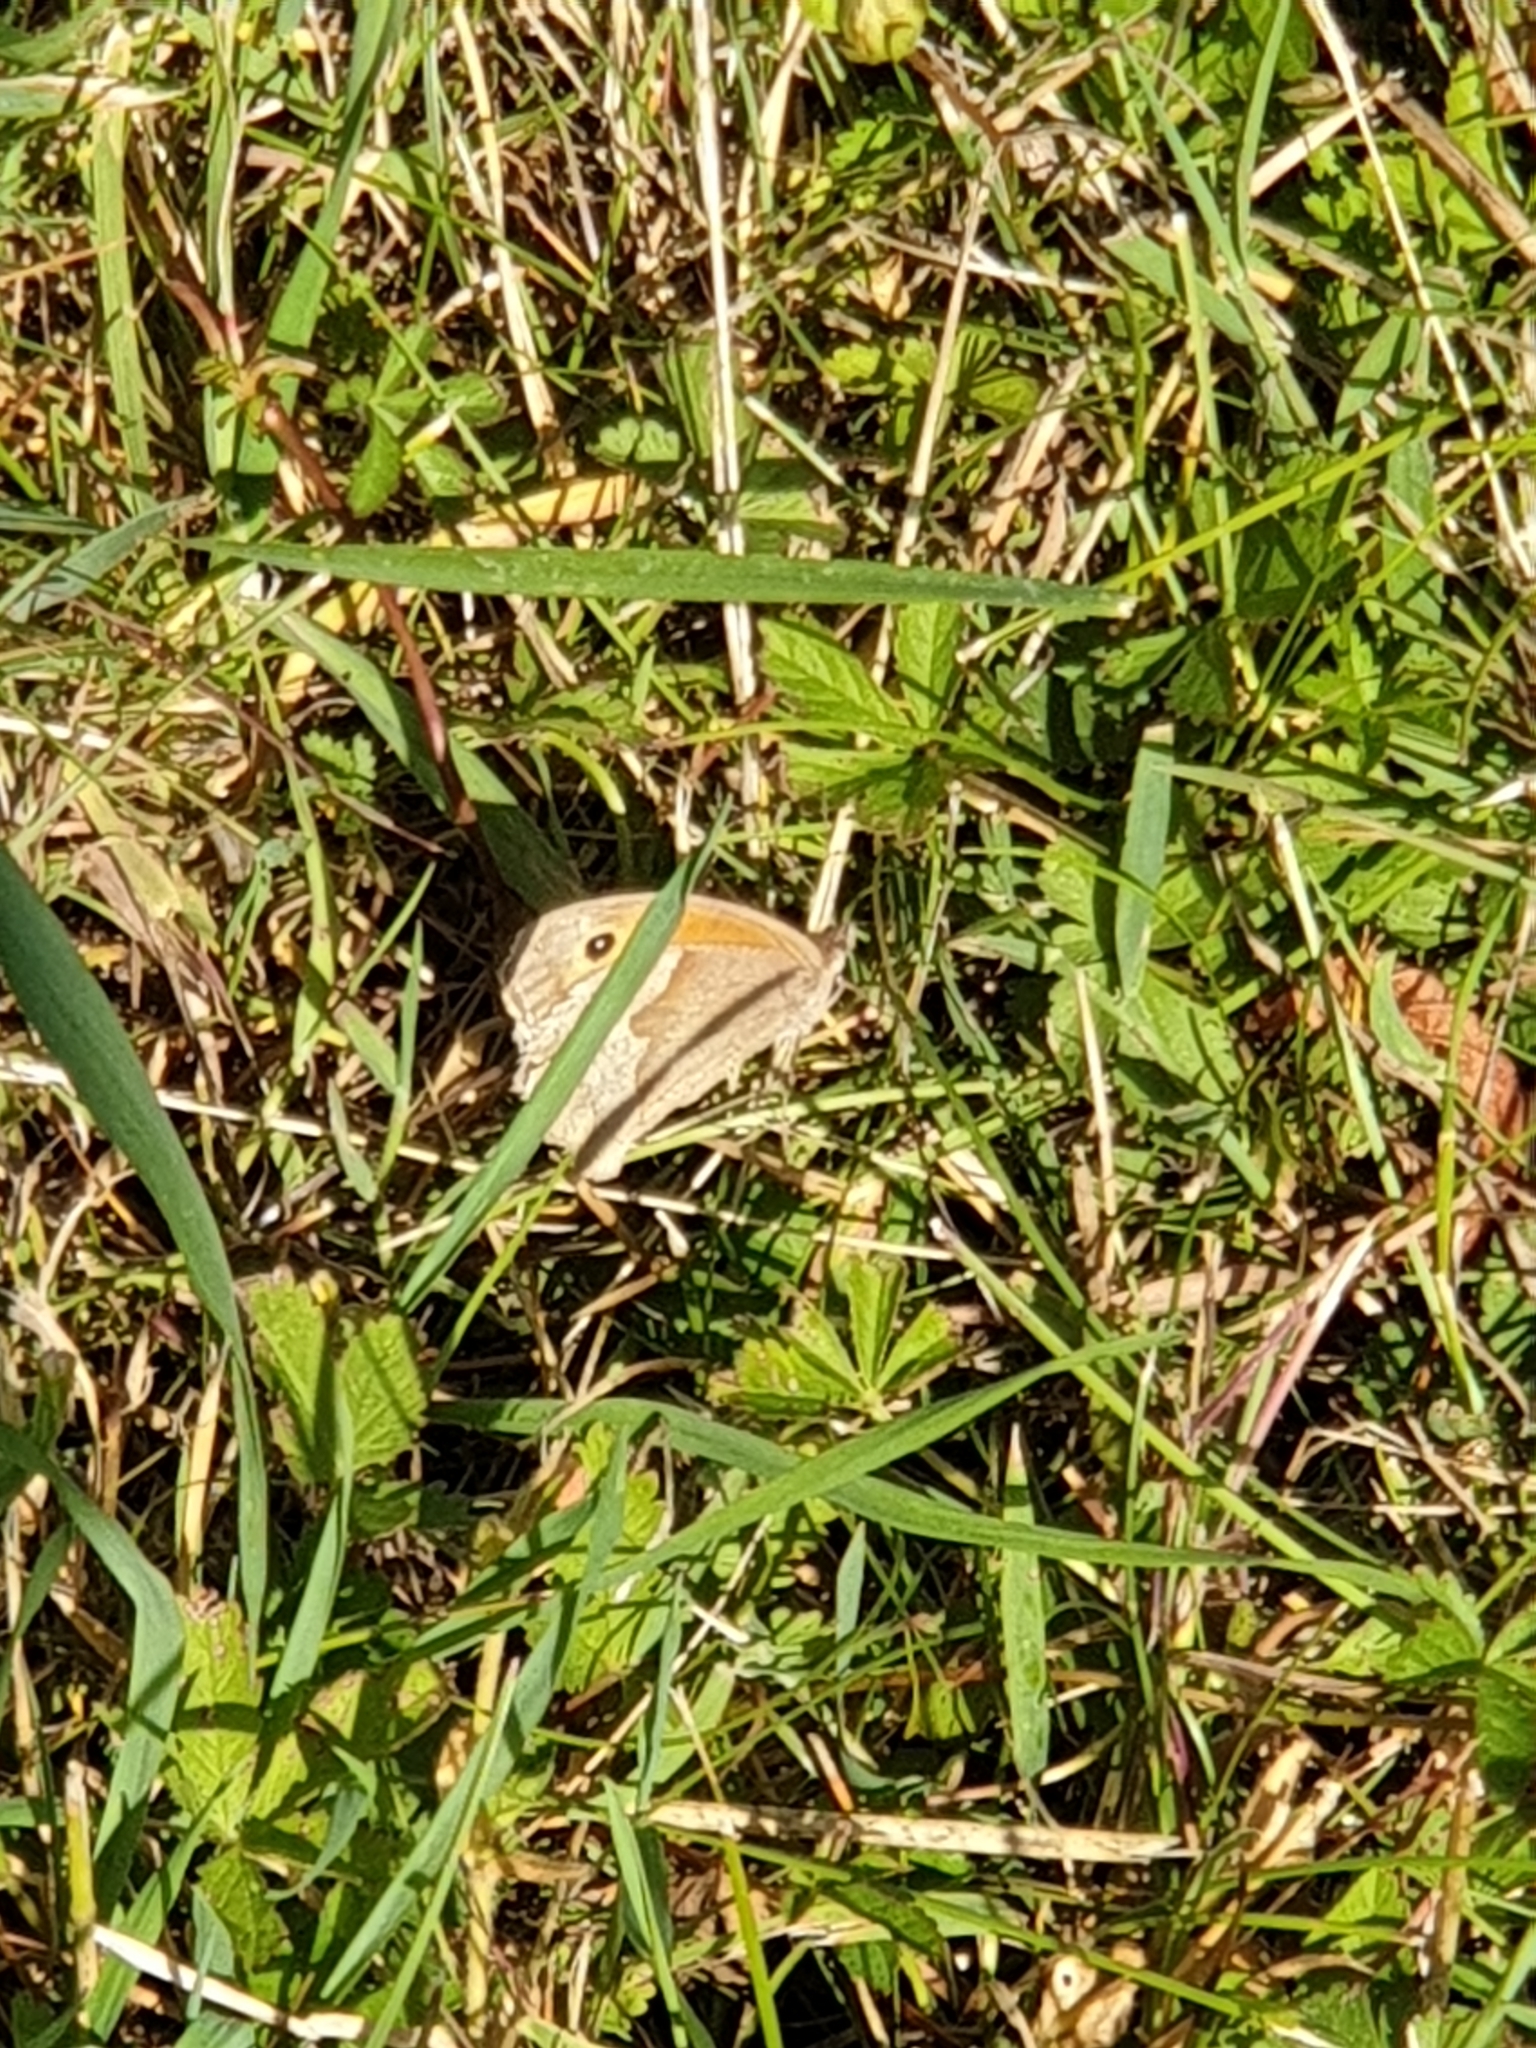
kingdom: Animalia
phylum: Arthropoda
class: Insecta
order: Lepidoptera
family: Nymphalidae
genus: Maniola
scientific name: Maniola jurtina
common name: Meadow brown
